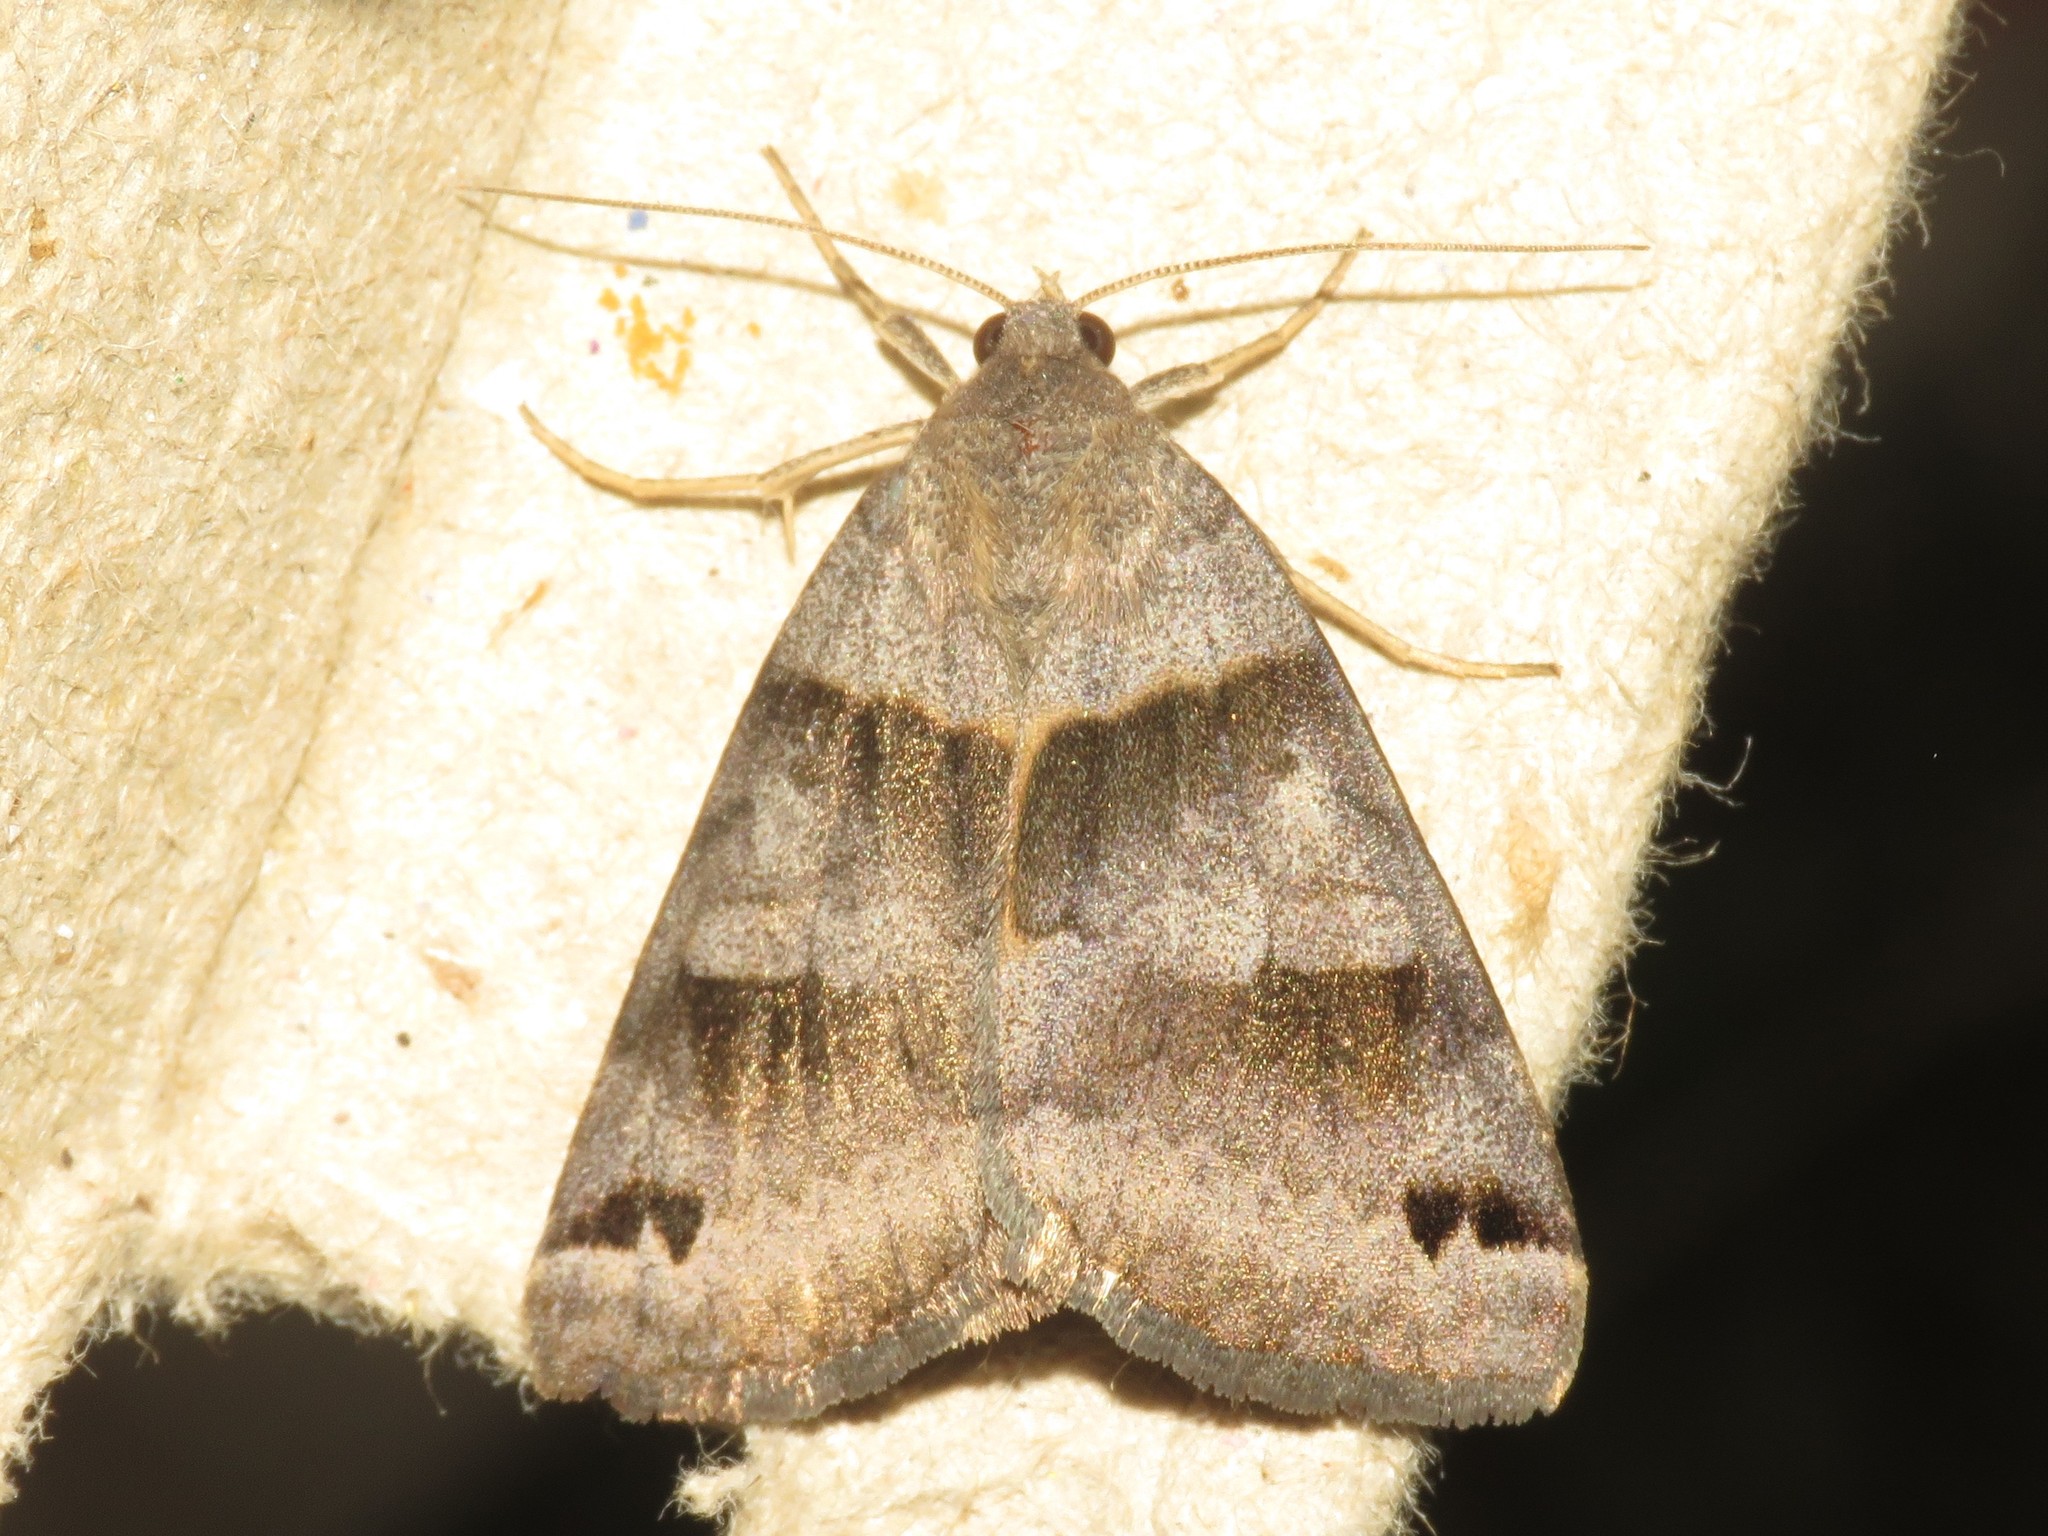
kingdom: Animalia
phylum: Arthropoda
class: Insecta
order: Lepidoptera
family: Erebidae
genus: Caenurgina
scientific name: Caenurgina crassiuscula
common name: Double-barred
